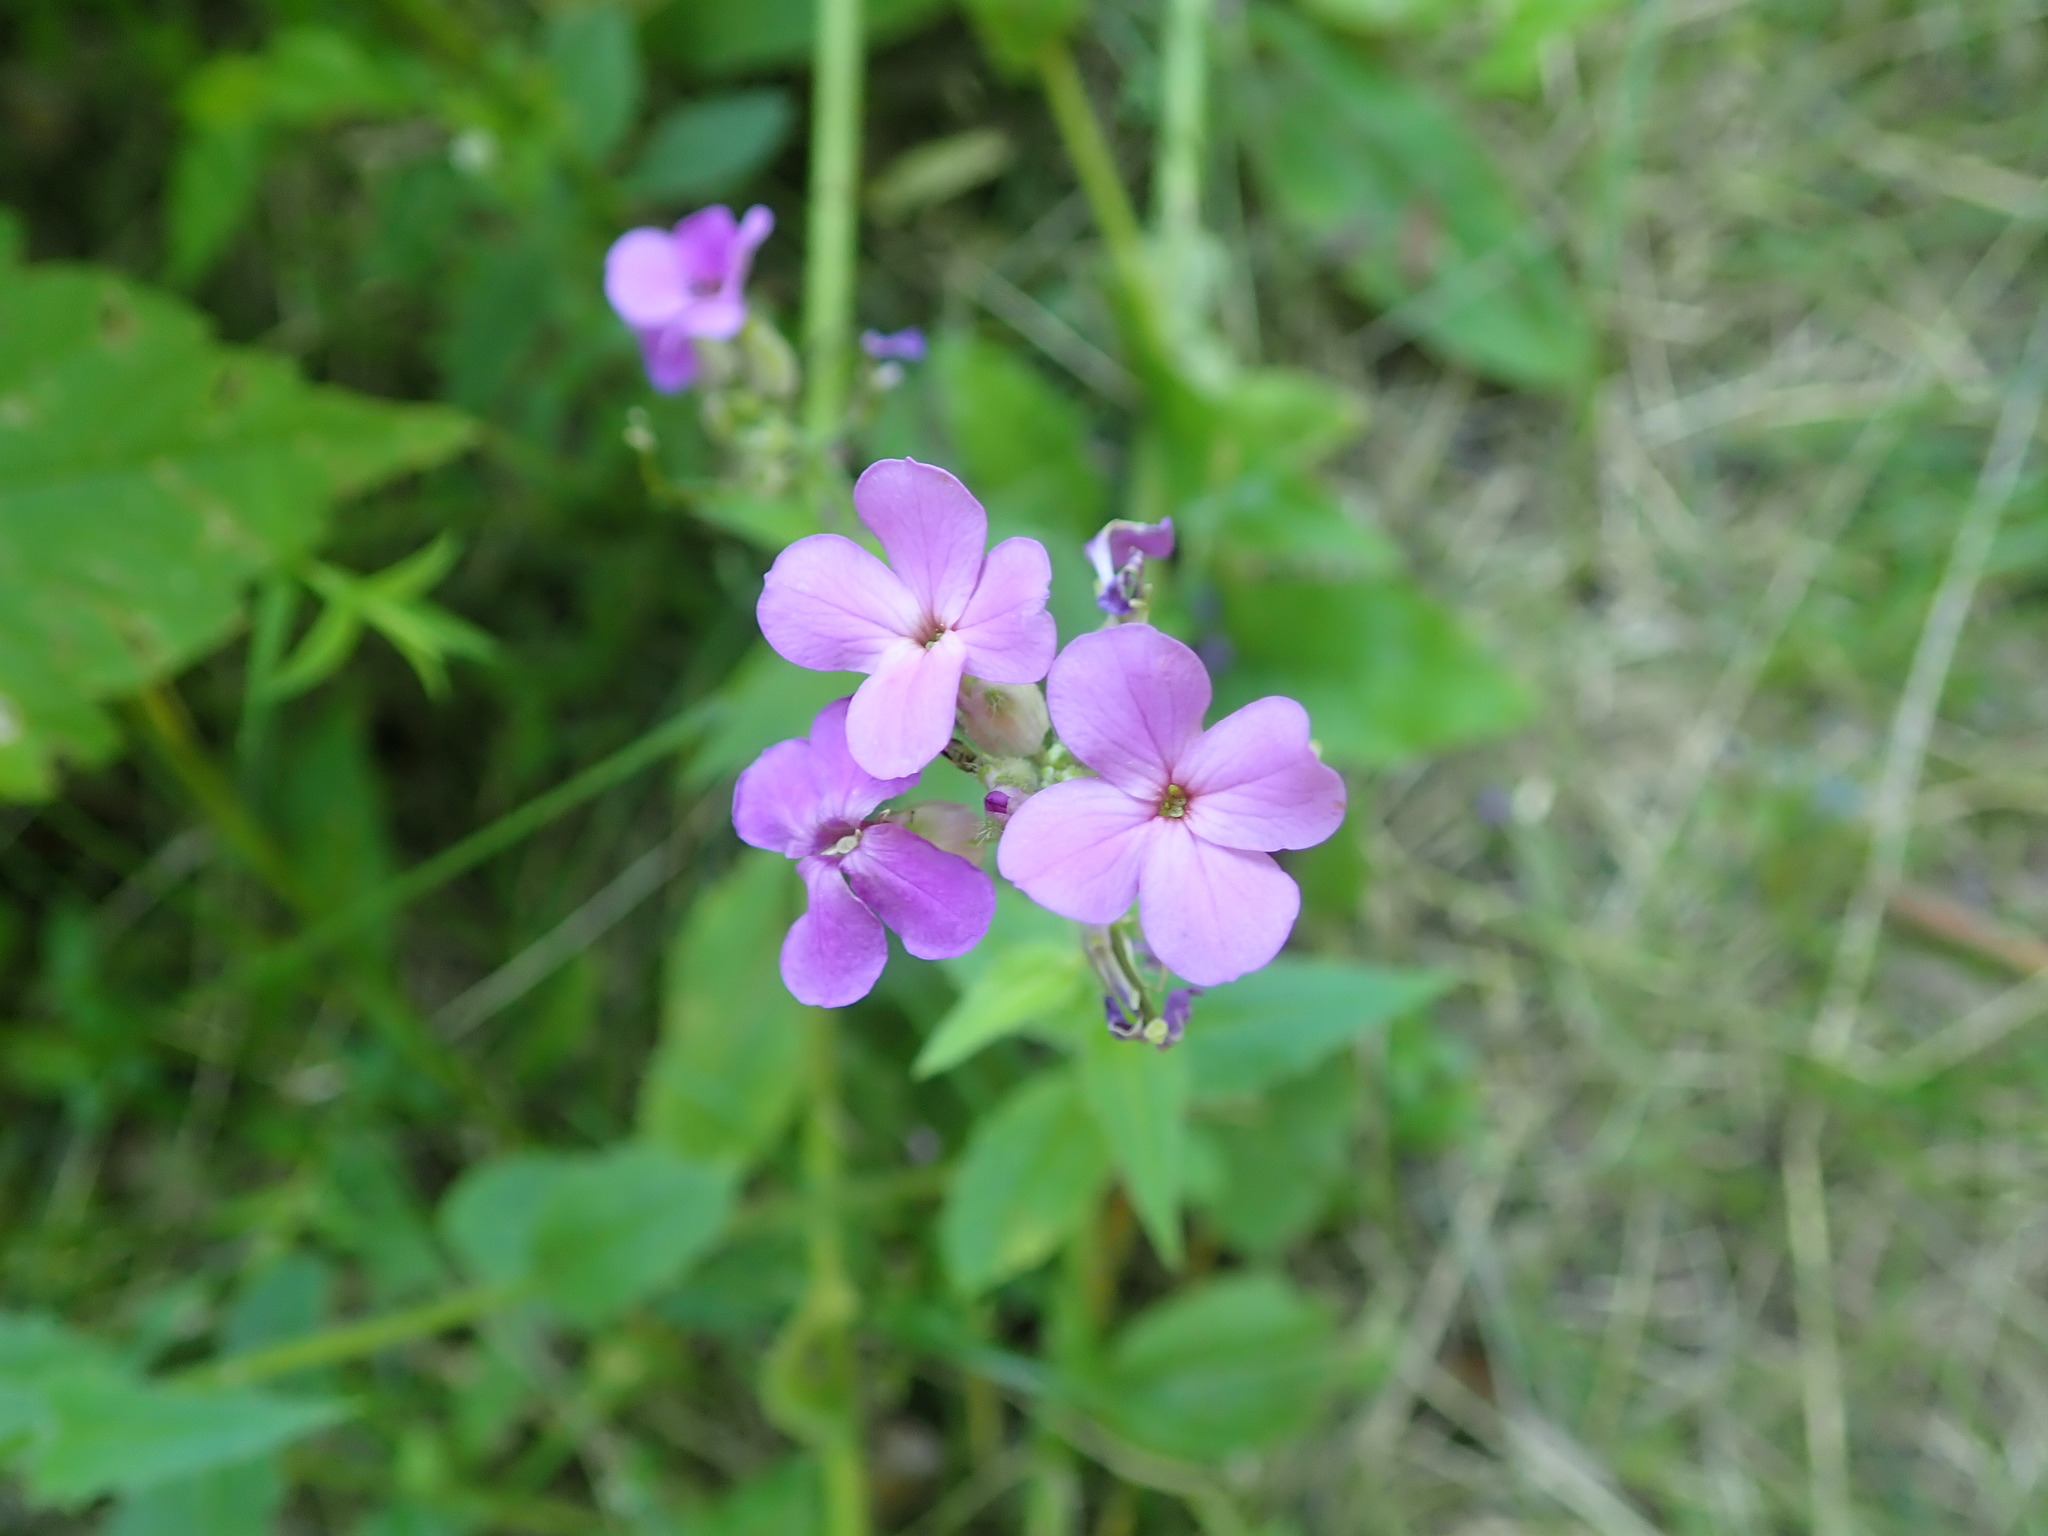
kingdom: Plantae
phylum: Tracheophyta
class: Magnoliopsida
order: Brassicales
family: Brassicaceae
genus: Hesperis
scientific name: Hesperis matronalis
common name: Dame's-violet
